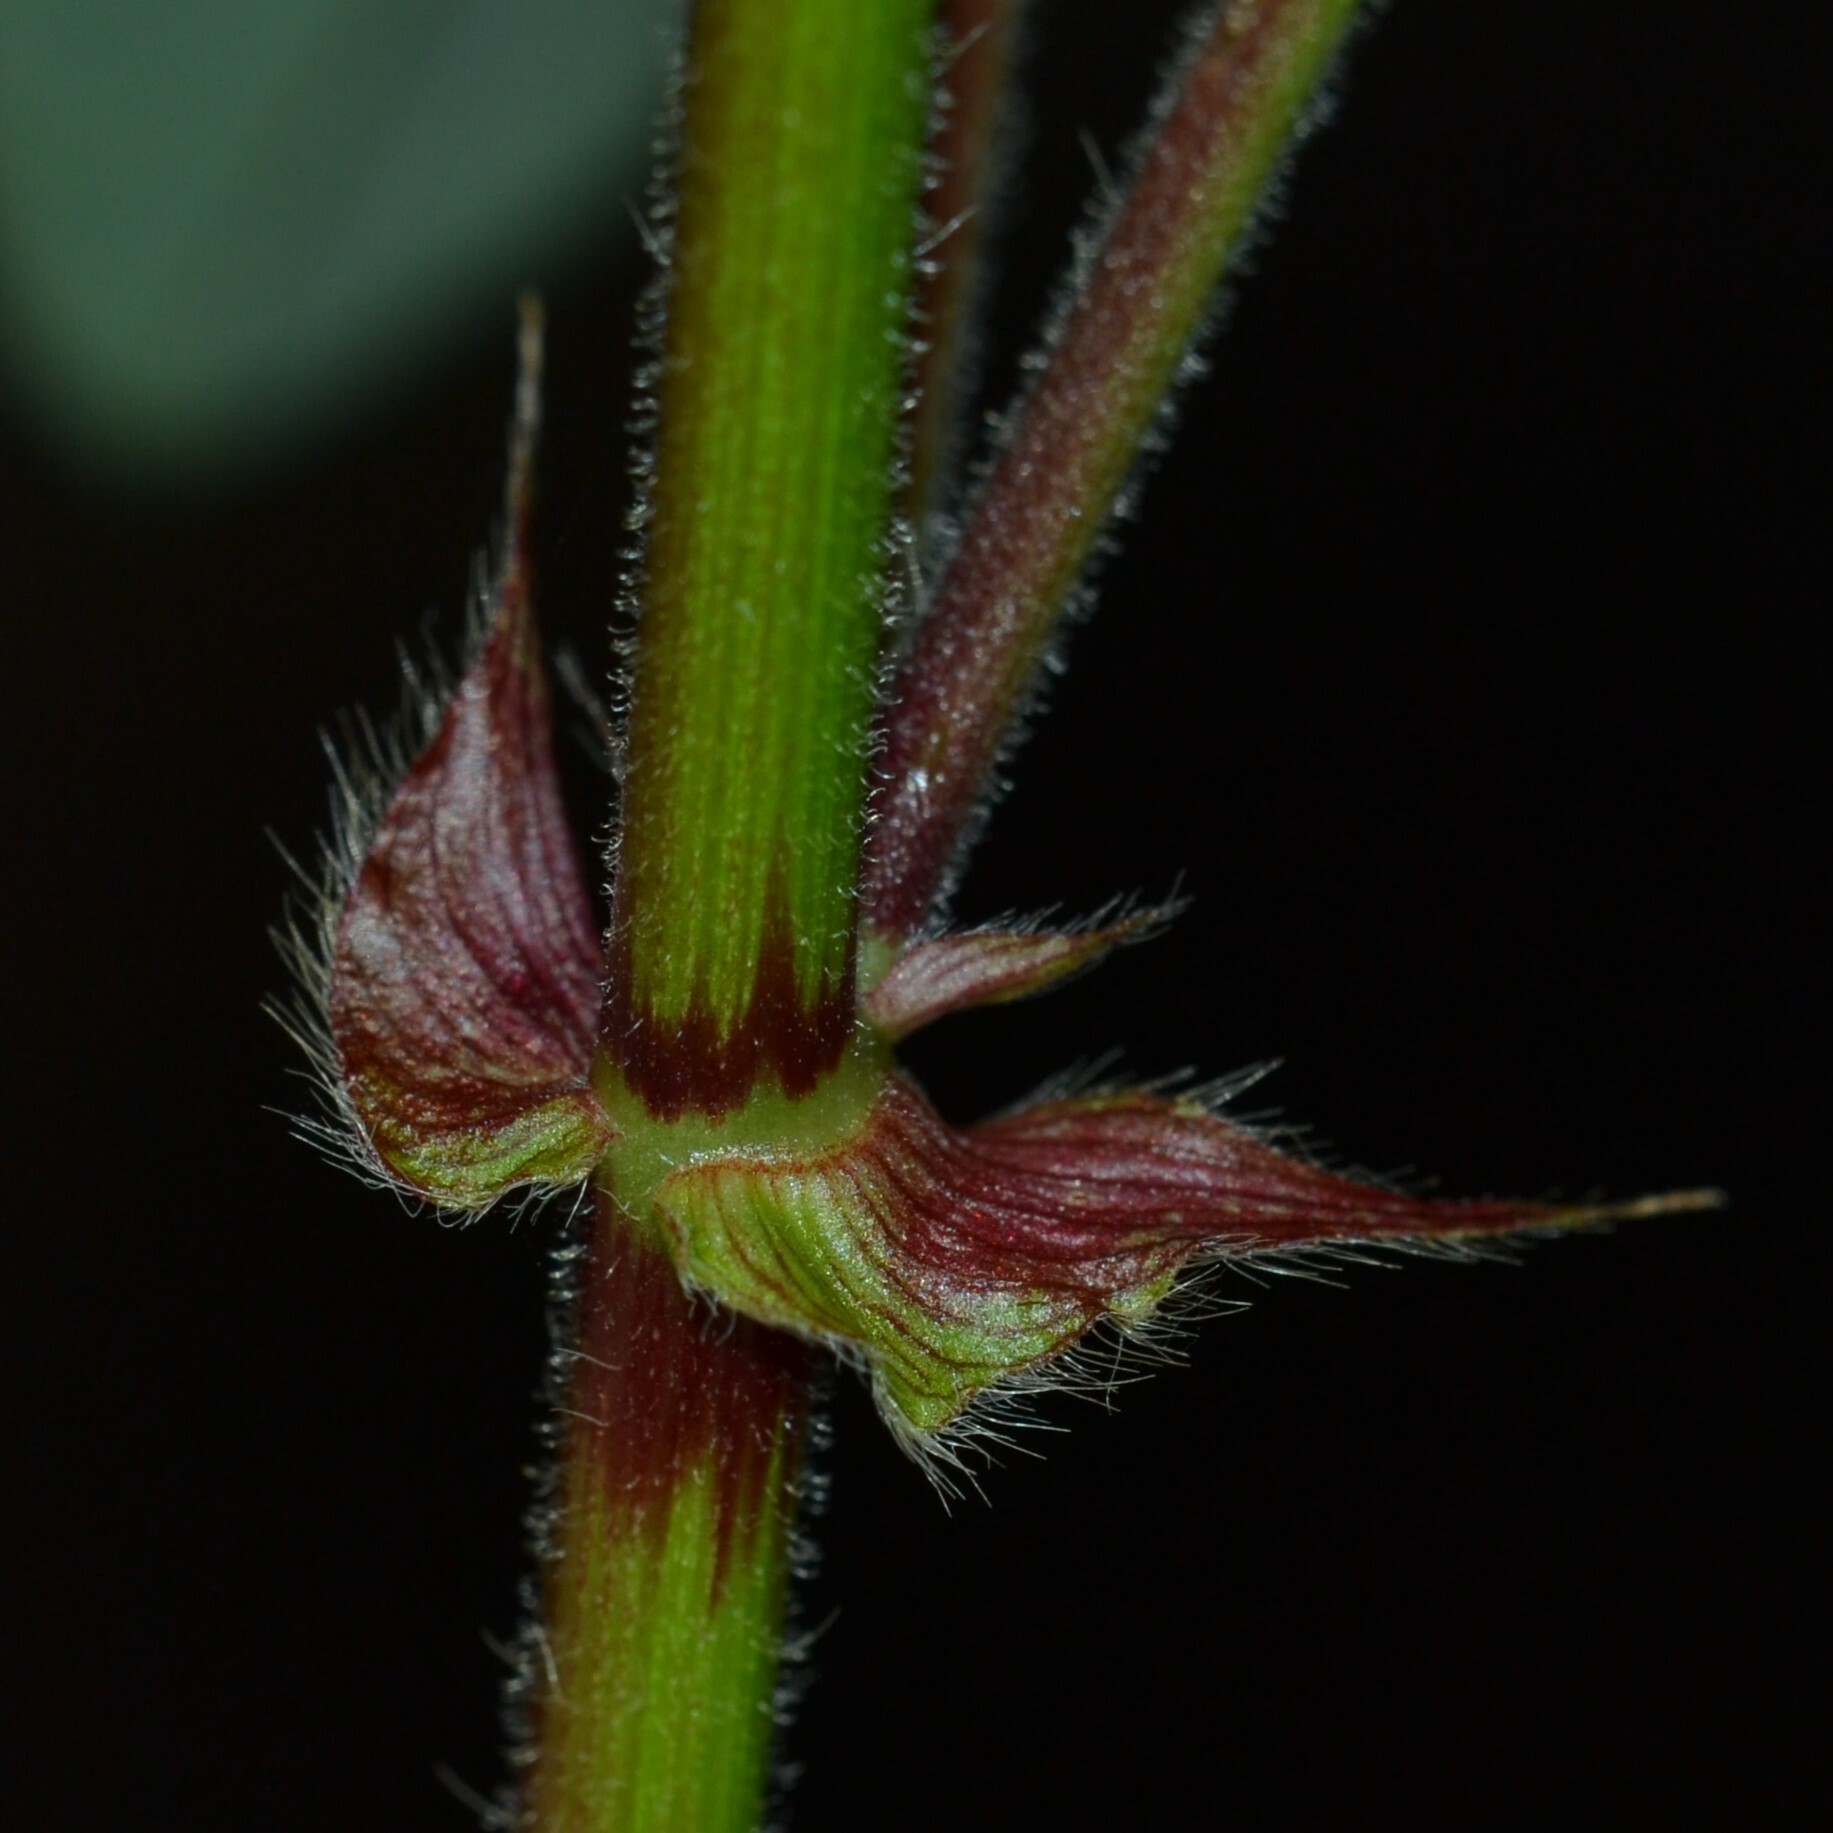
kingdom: Plantae
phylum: Tracheophyta
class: Magnoliopsida
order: Fabales
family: Fabaceae
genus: Desmodium
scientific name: Desmodium tortuosum
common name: Dixie ticktrefoil
